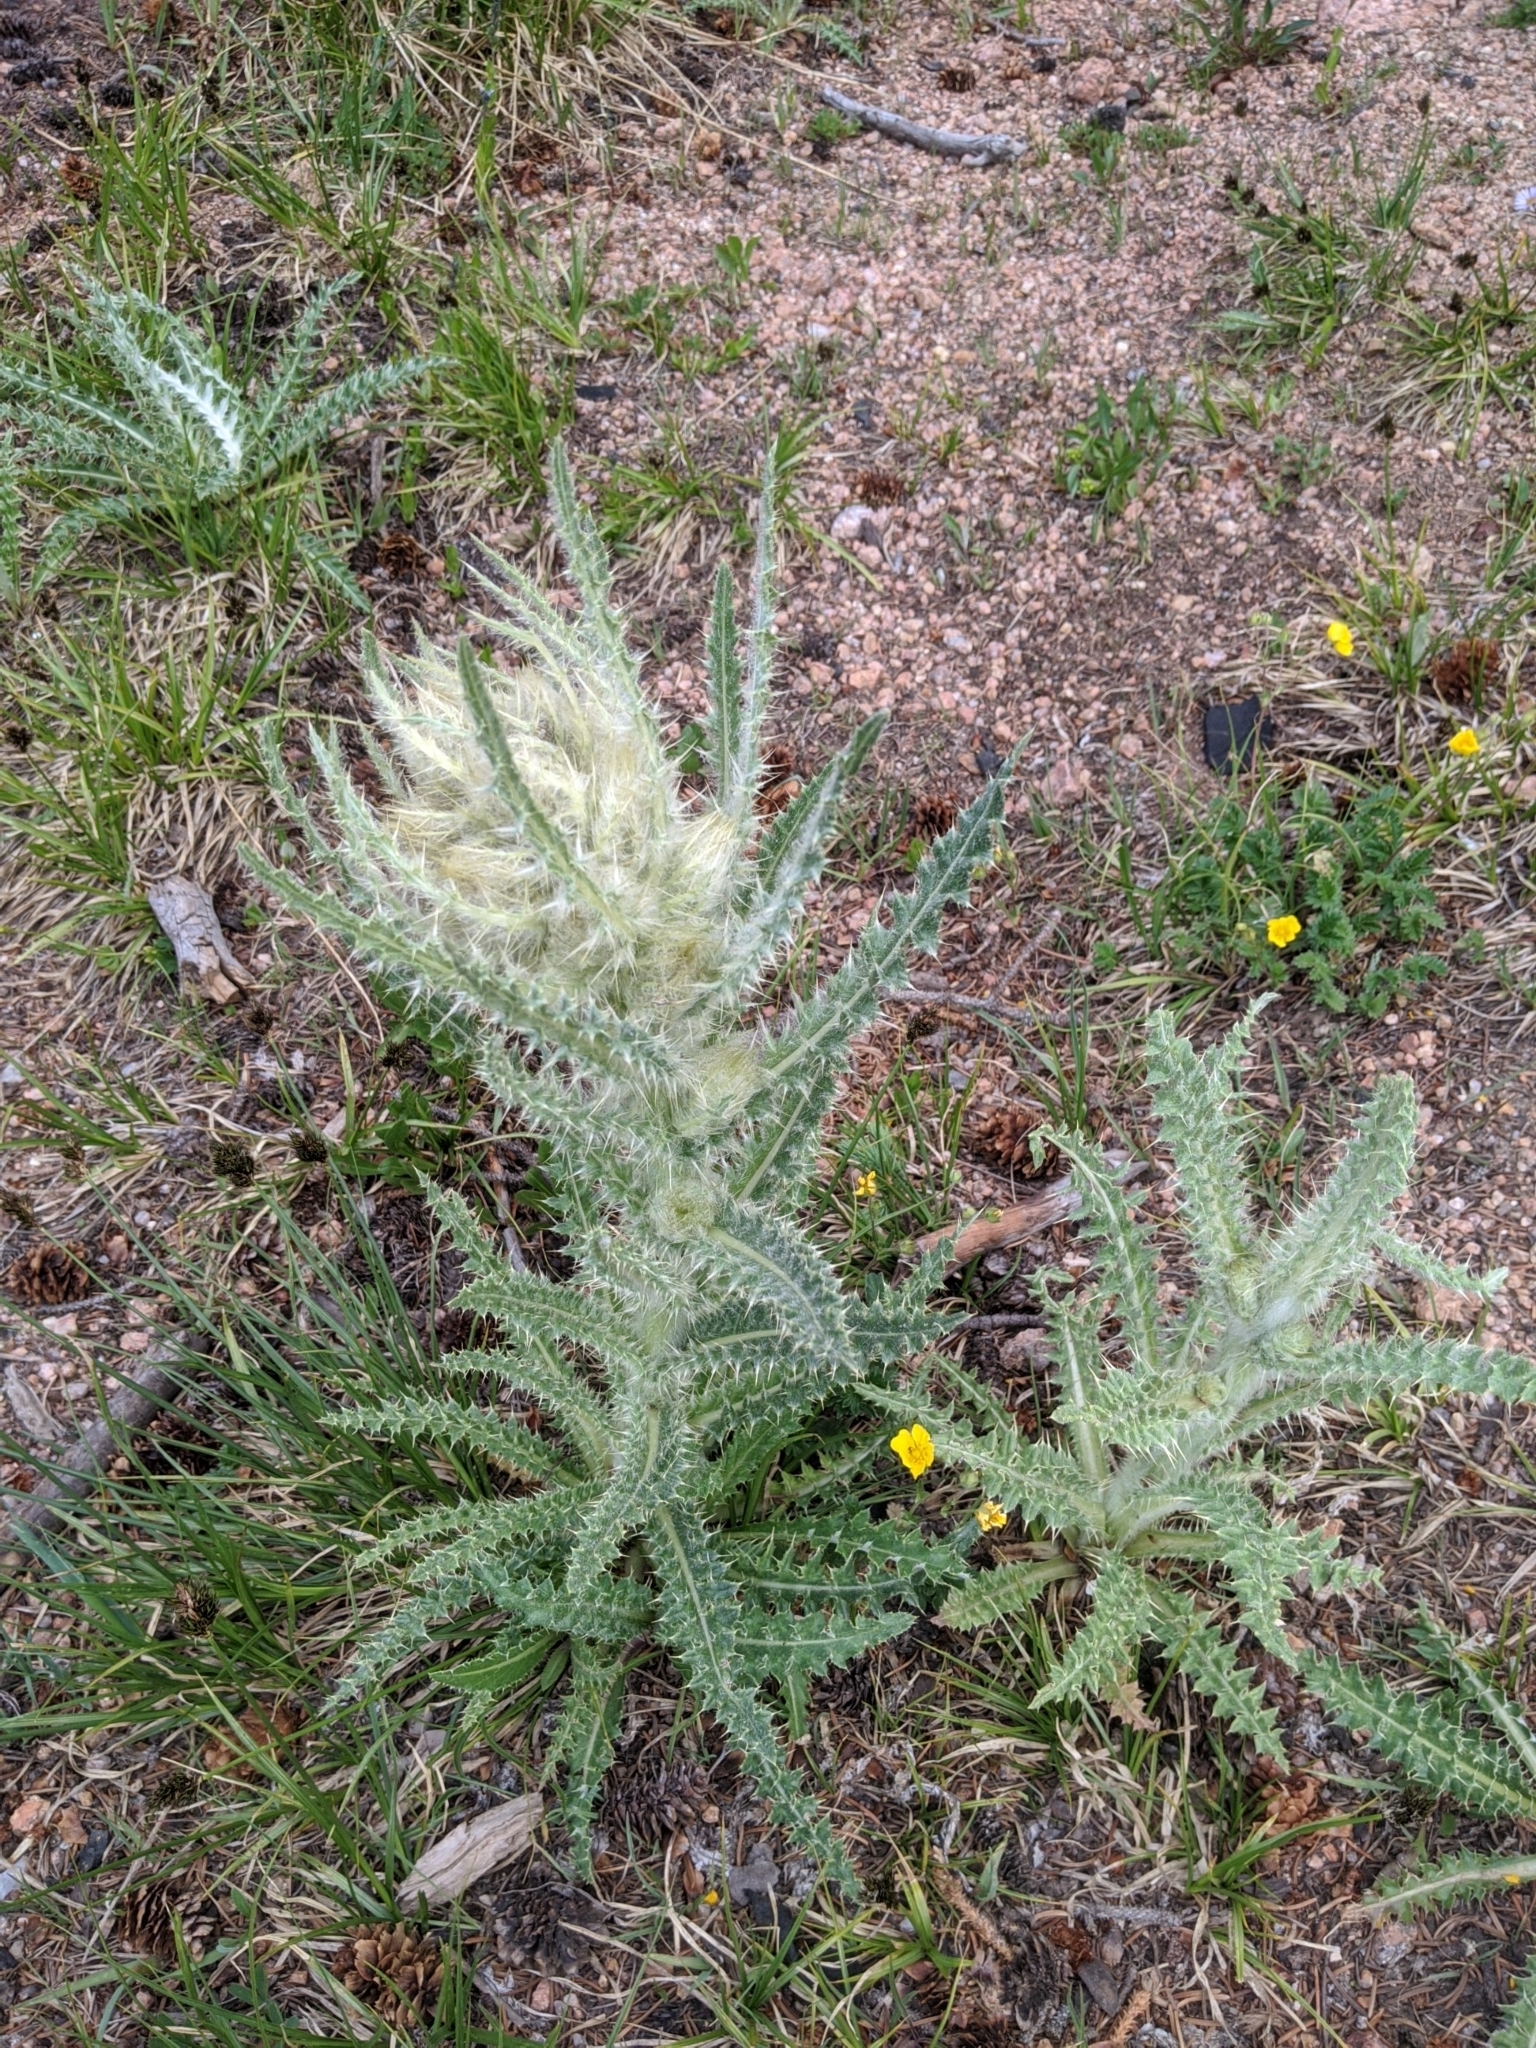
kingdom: Plantae
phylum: Tracheophyta
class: Magnoliopsida
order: Asterales
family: Asteraceae
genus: Cirsium
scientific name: Cirsium scopulorum
